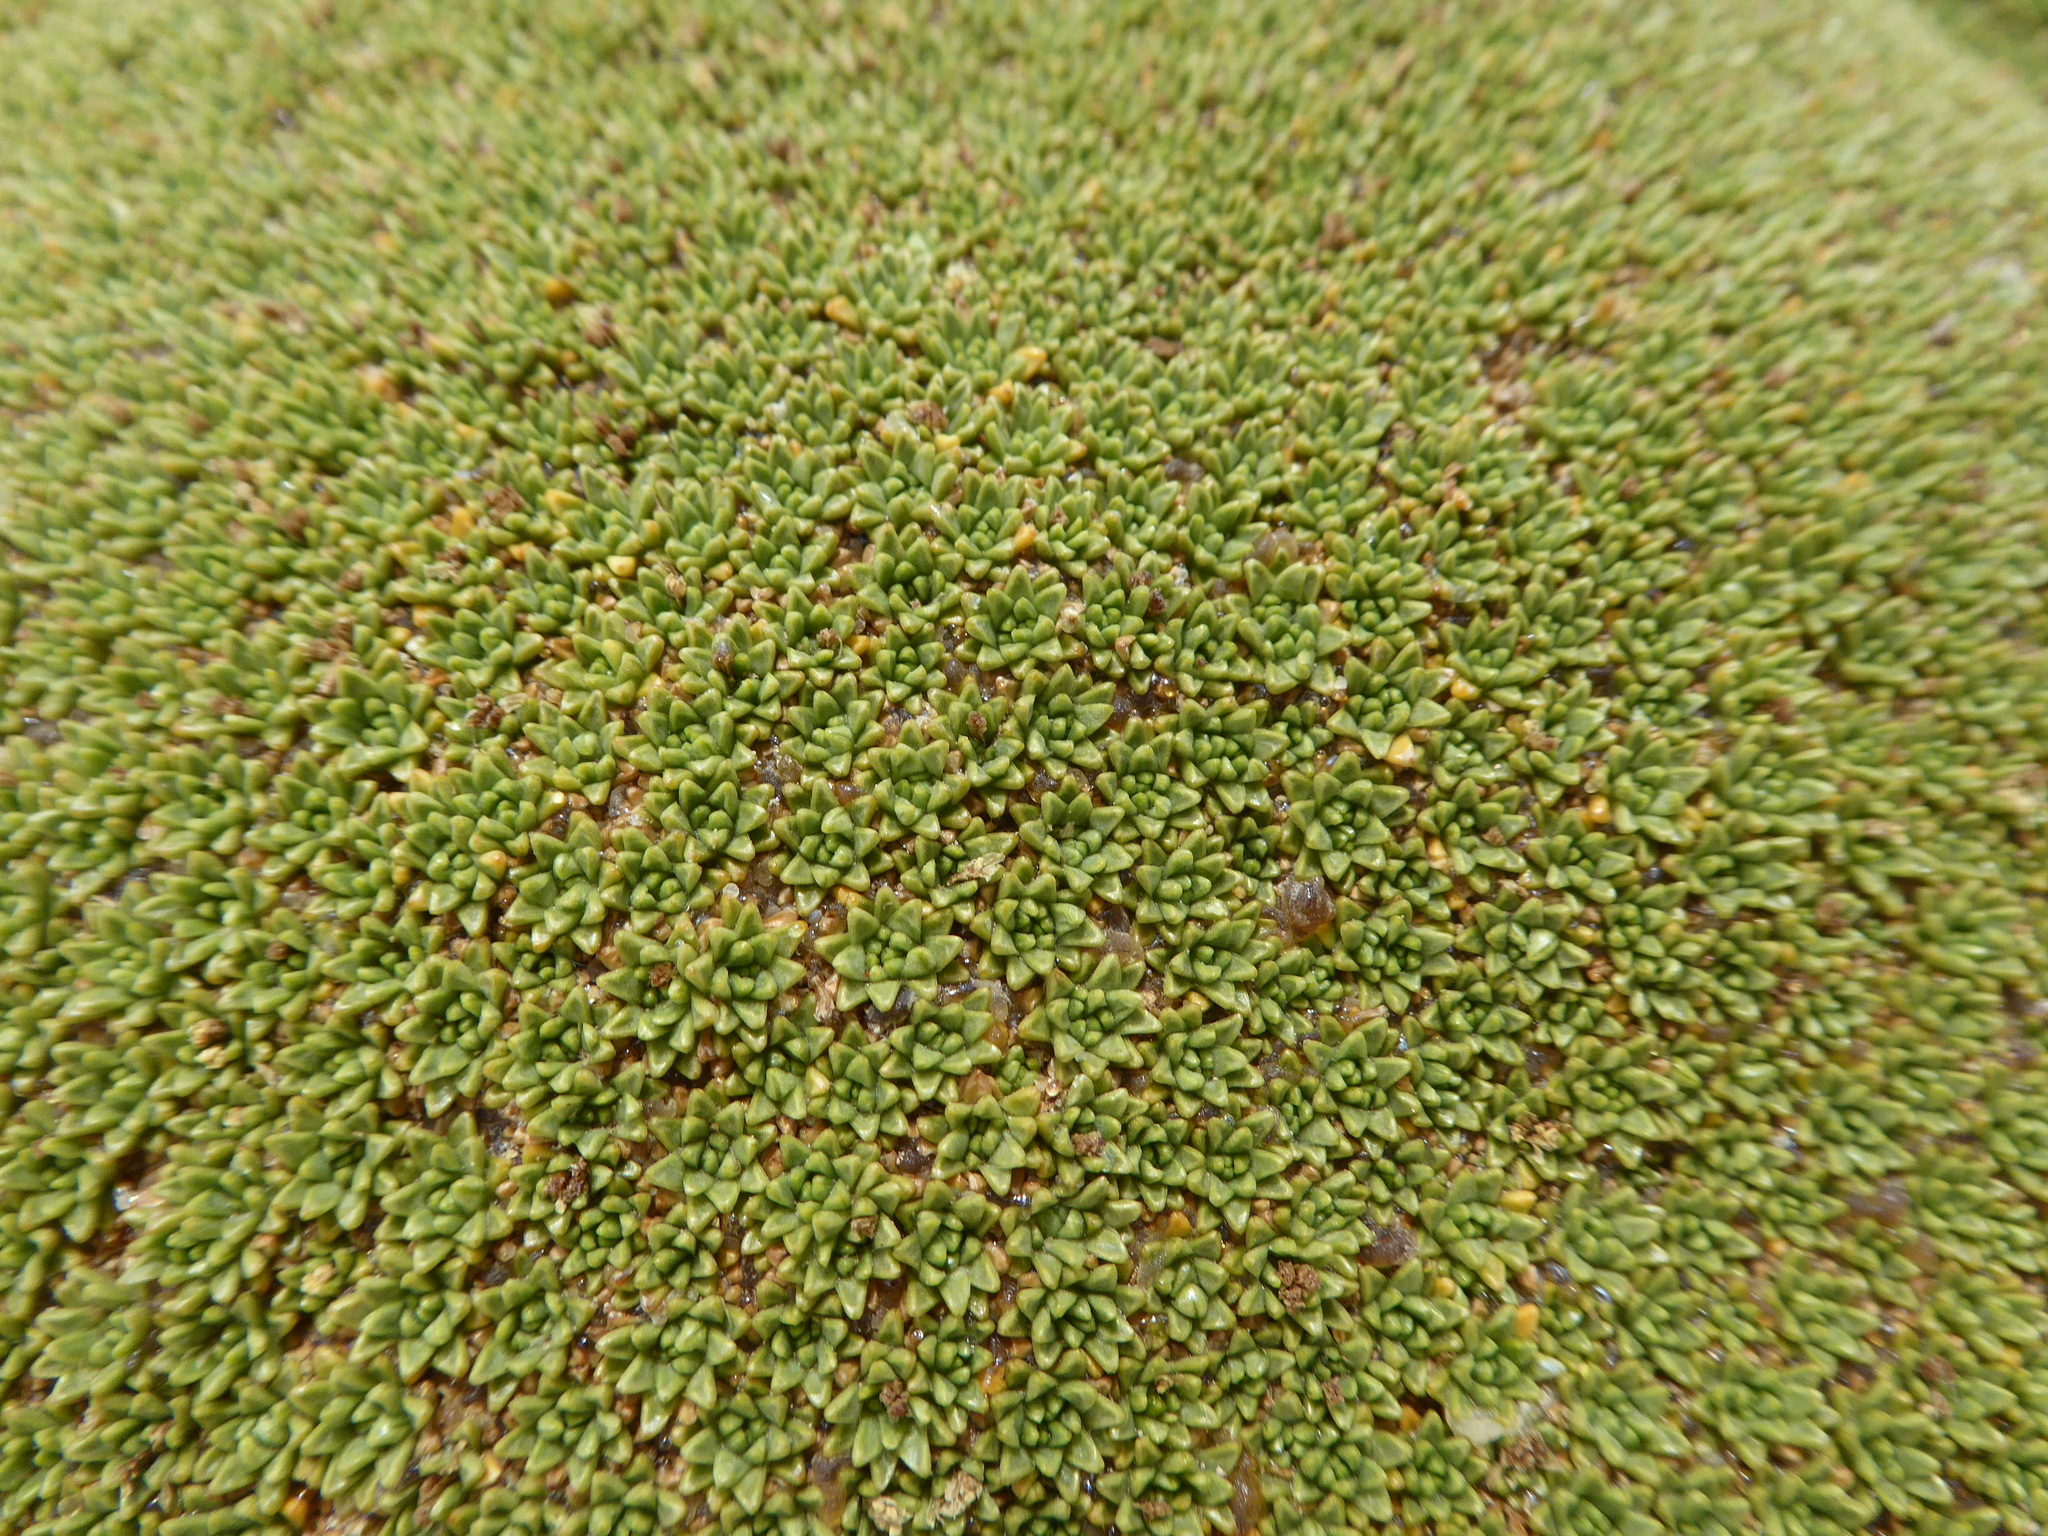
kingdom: Plantae
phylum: Tracheophyta
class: Magnoliopsida
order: Apiales
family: Apiaceae
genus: Azorella
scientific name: Azorella compacta
